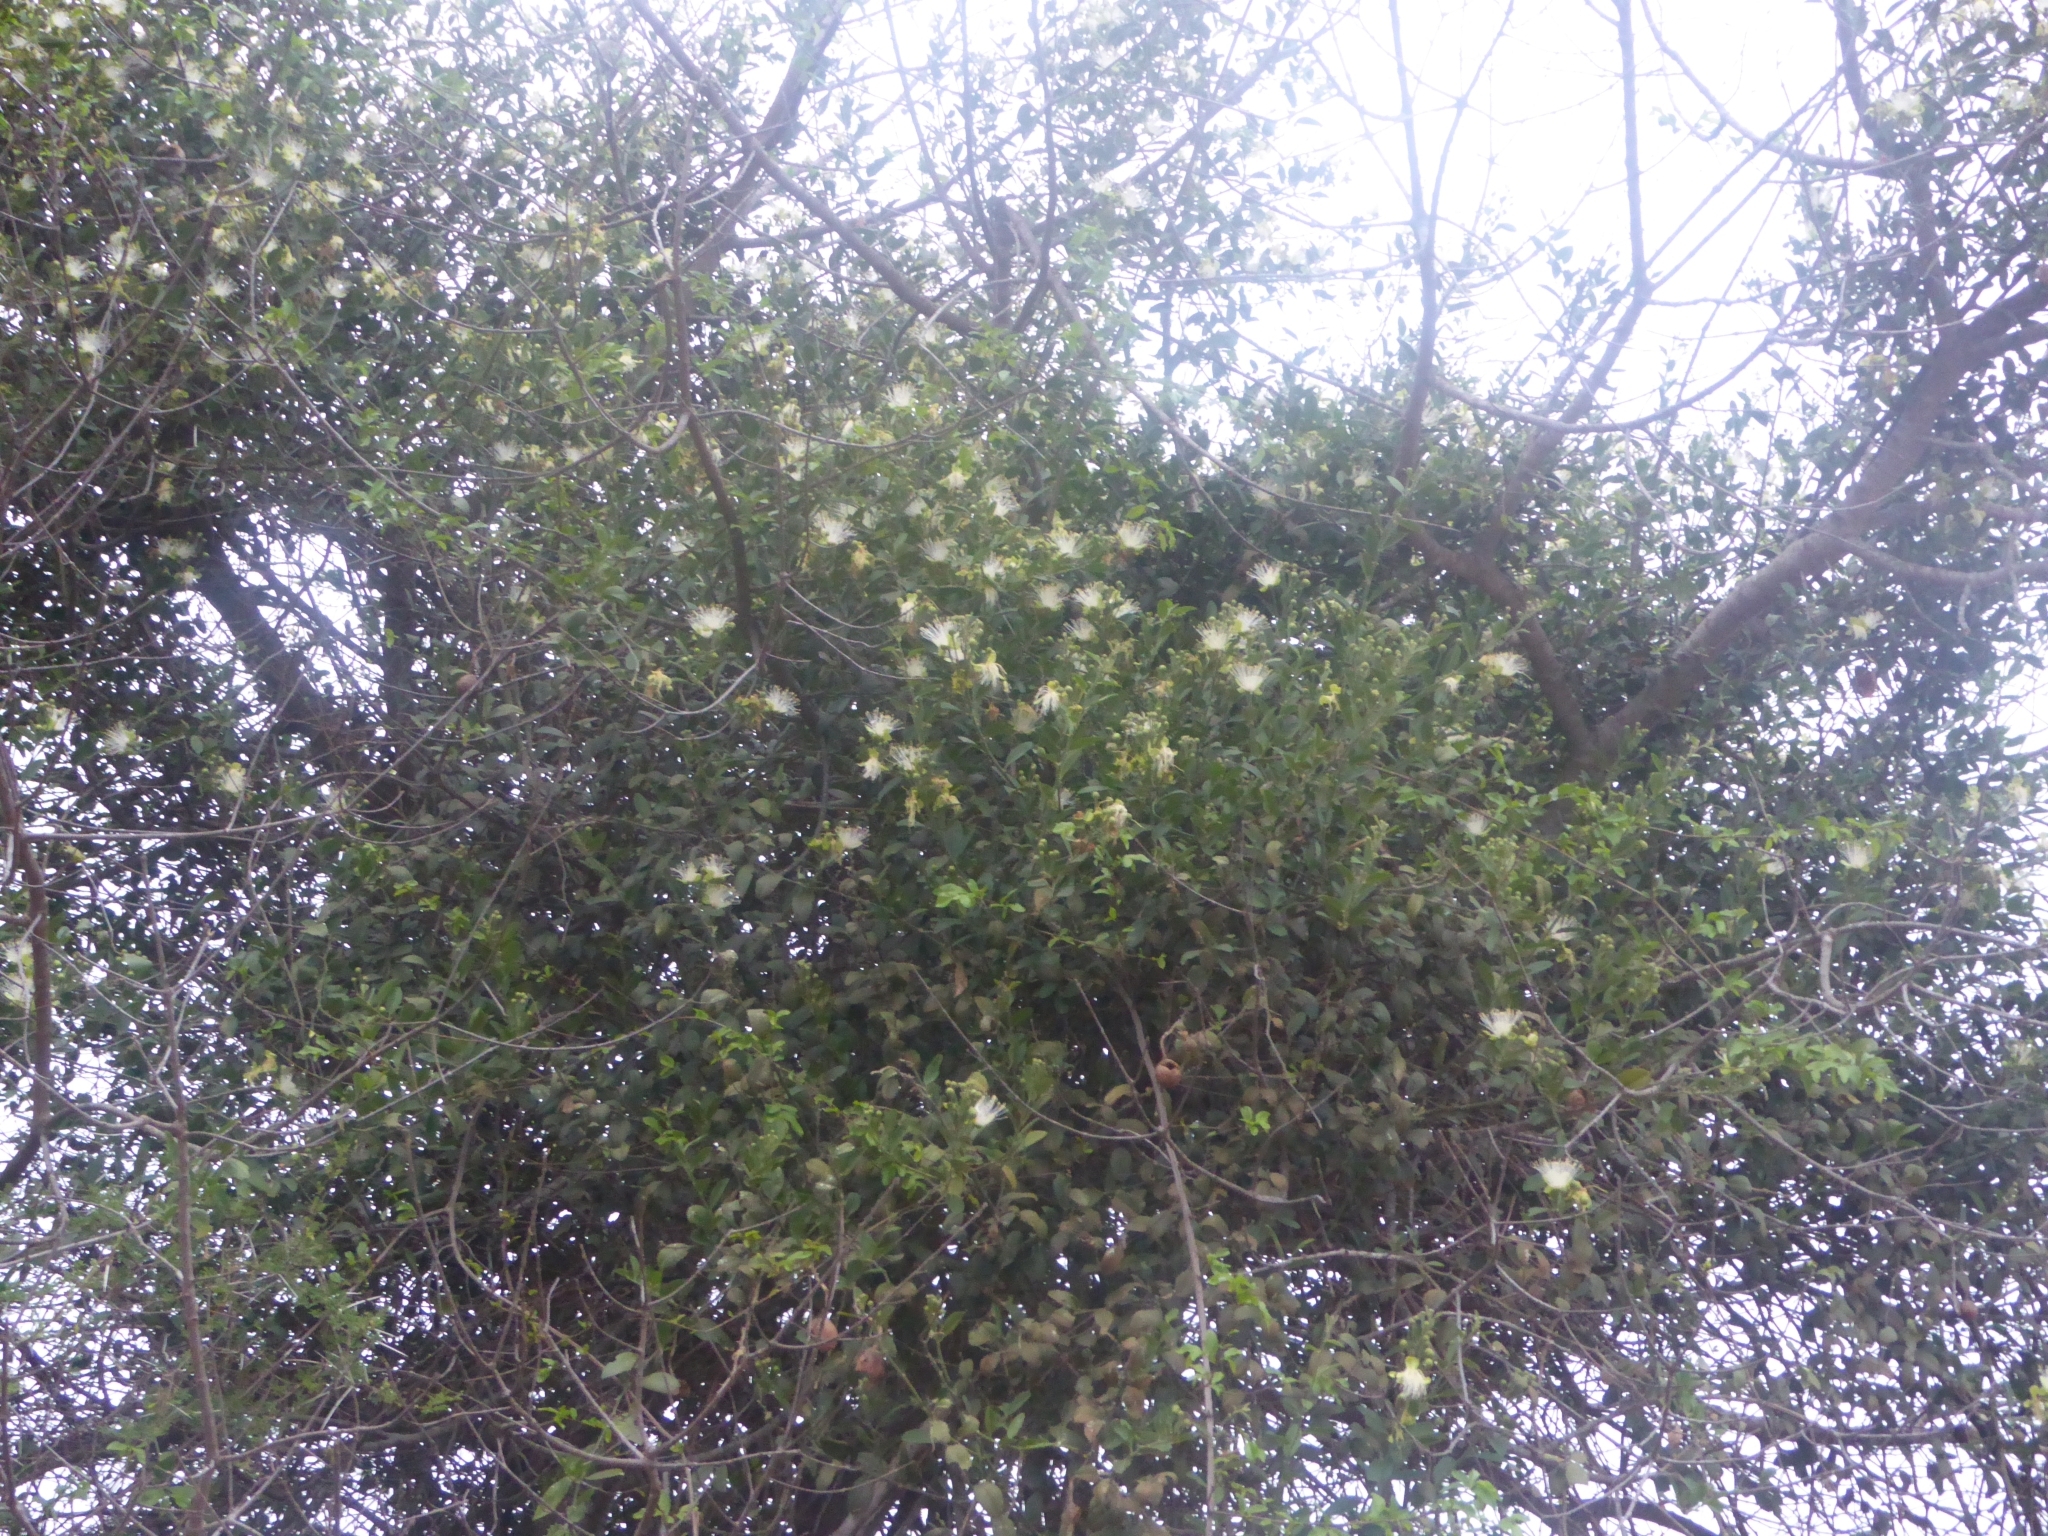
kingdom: Plantae
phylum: Tracheophyta
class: Magnoliopsida
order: Brassicales
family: Capparaceae
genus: Capparis
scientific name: Capparis tomentosa
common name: African caper
